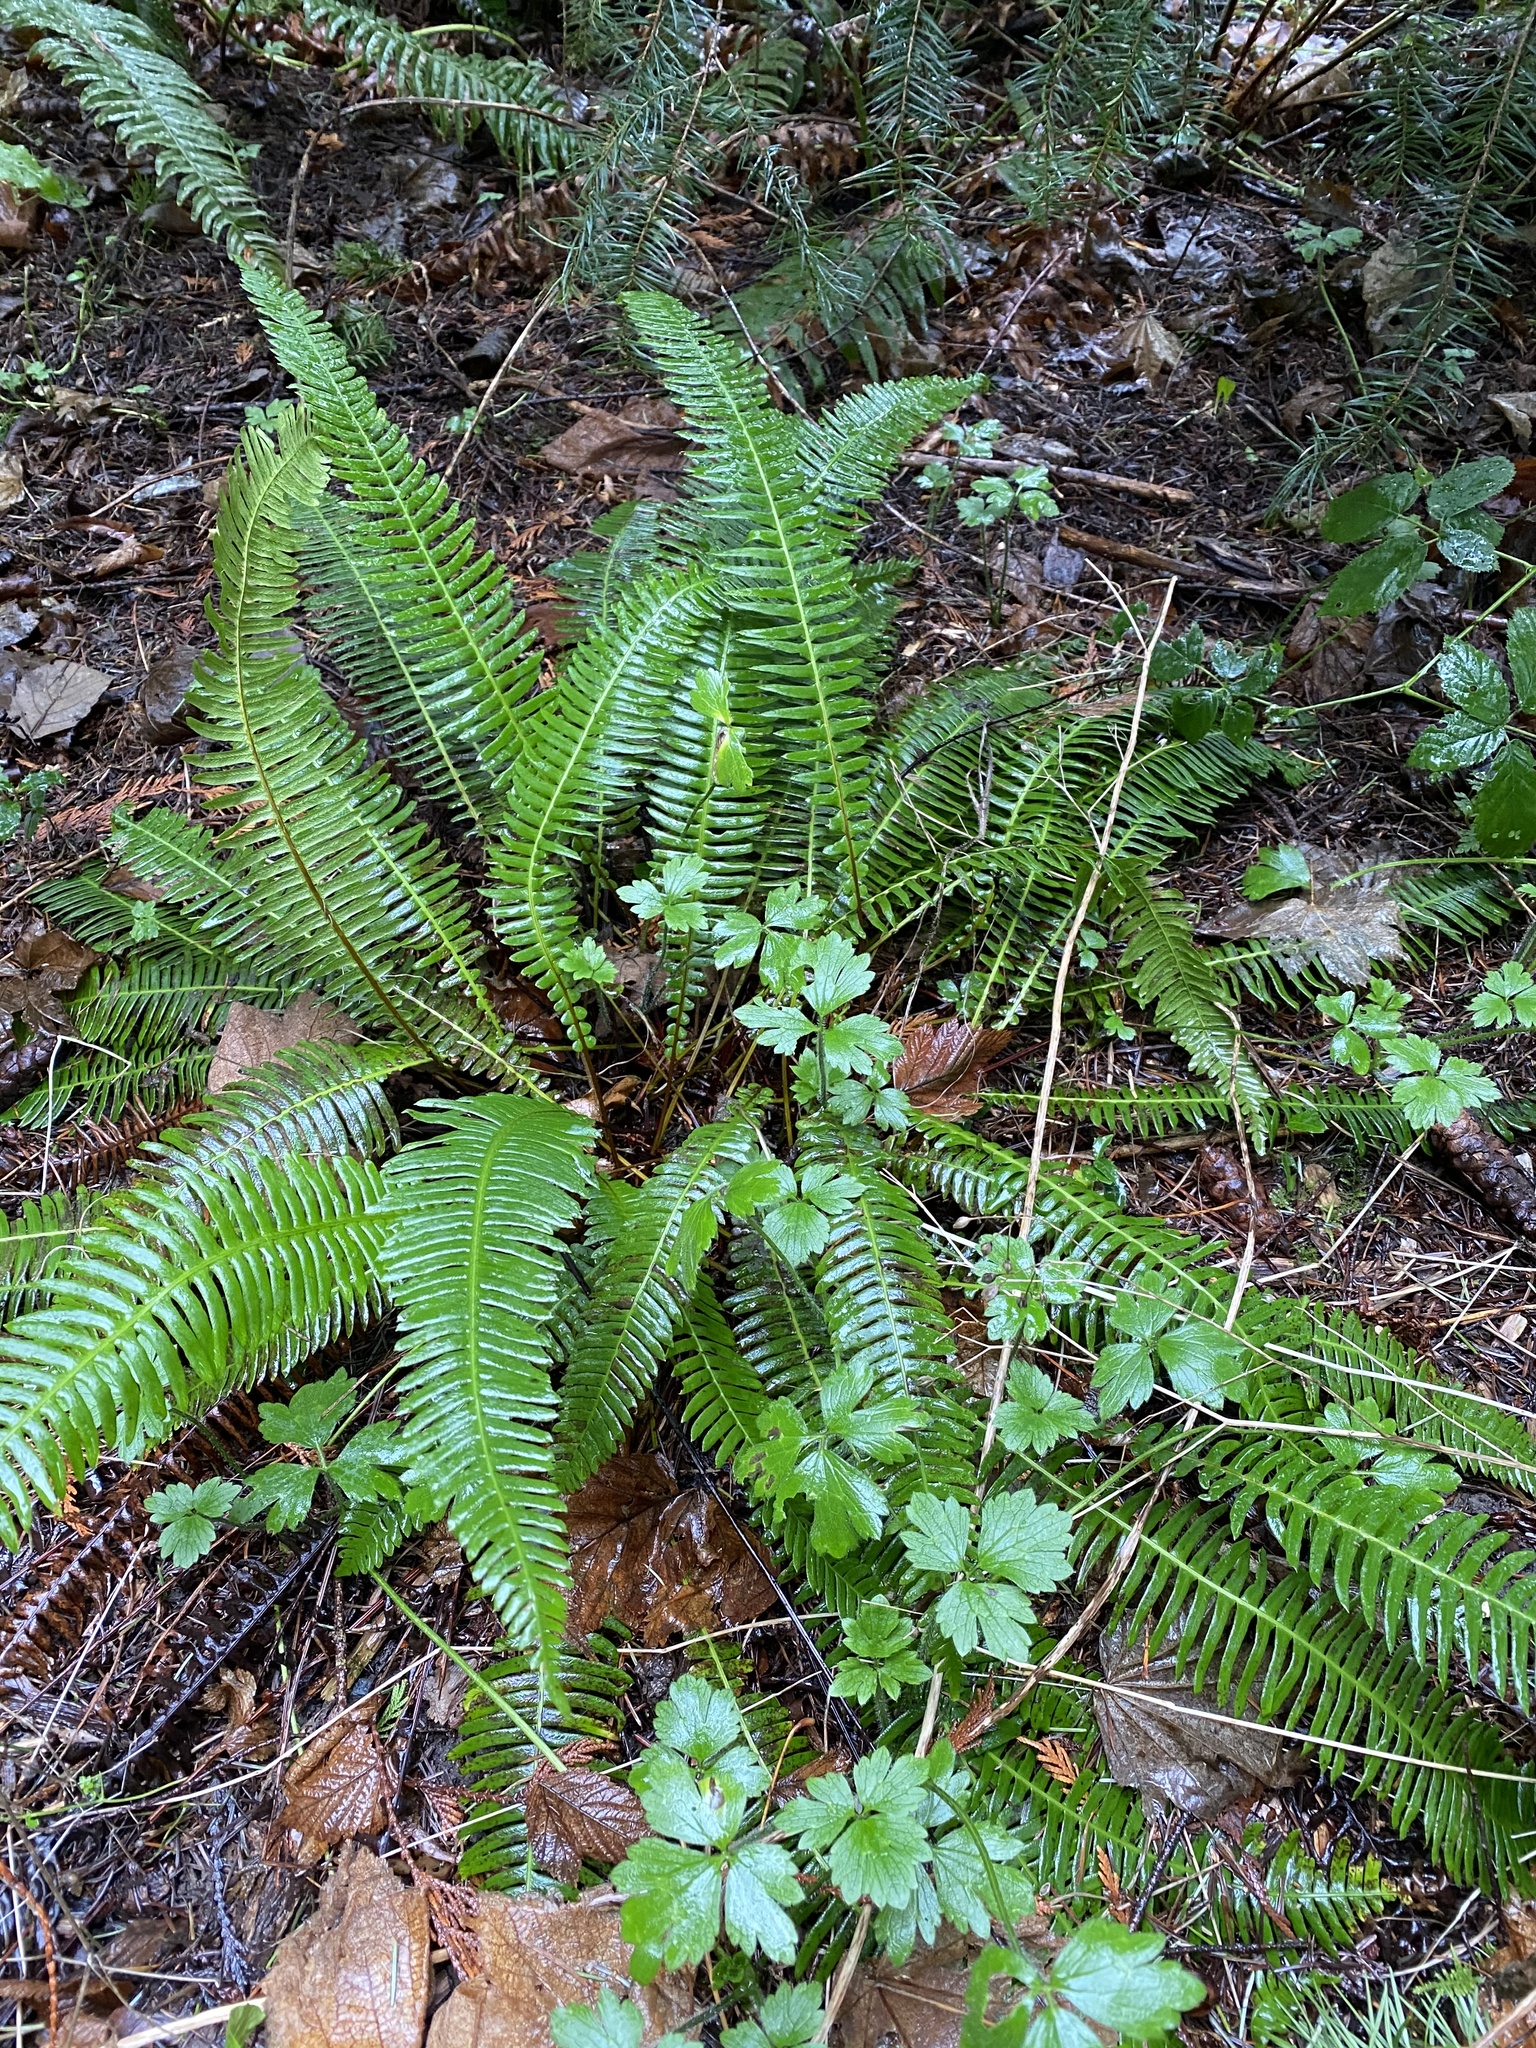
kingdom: Plantae
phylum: Tracheophyta
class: Polypodiopsida
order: Polypodiales
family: Blechnaceae
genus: Struthiopteris
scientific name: Struthiopteris spicant
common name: Deer fern
